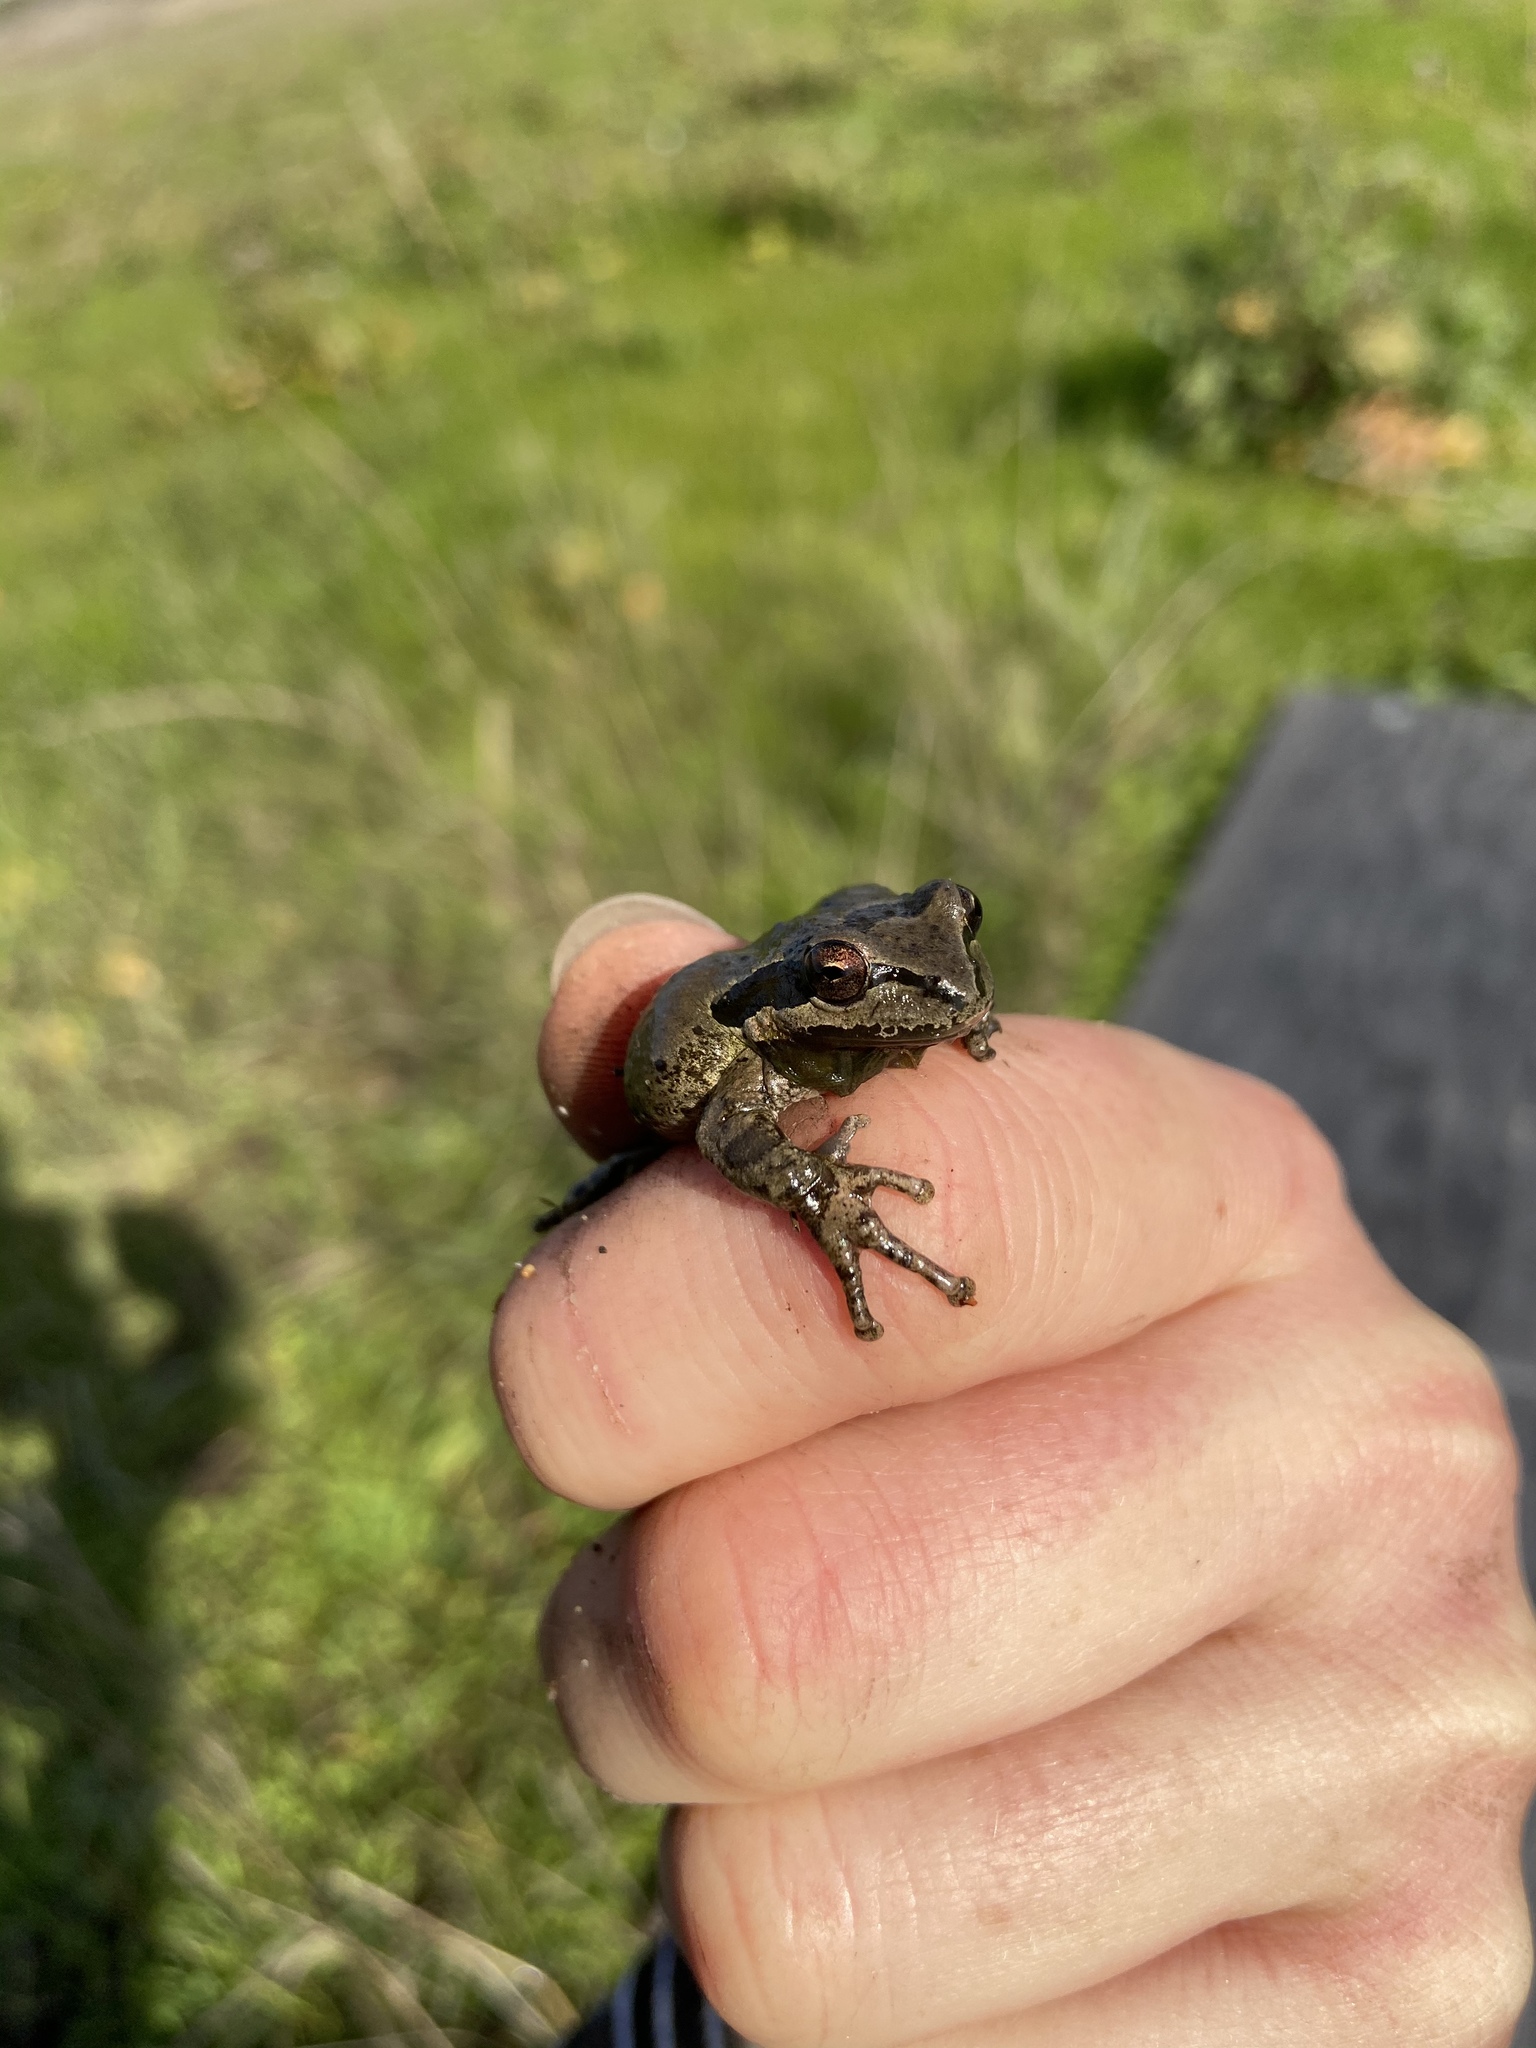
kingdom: Animalia
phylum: Chordata
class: Amphibia
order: Anura
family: Hylidae
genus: Pseudacris
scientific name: Pseudacris regilla
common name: Pacific chorus frog
